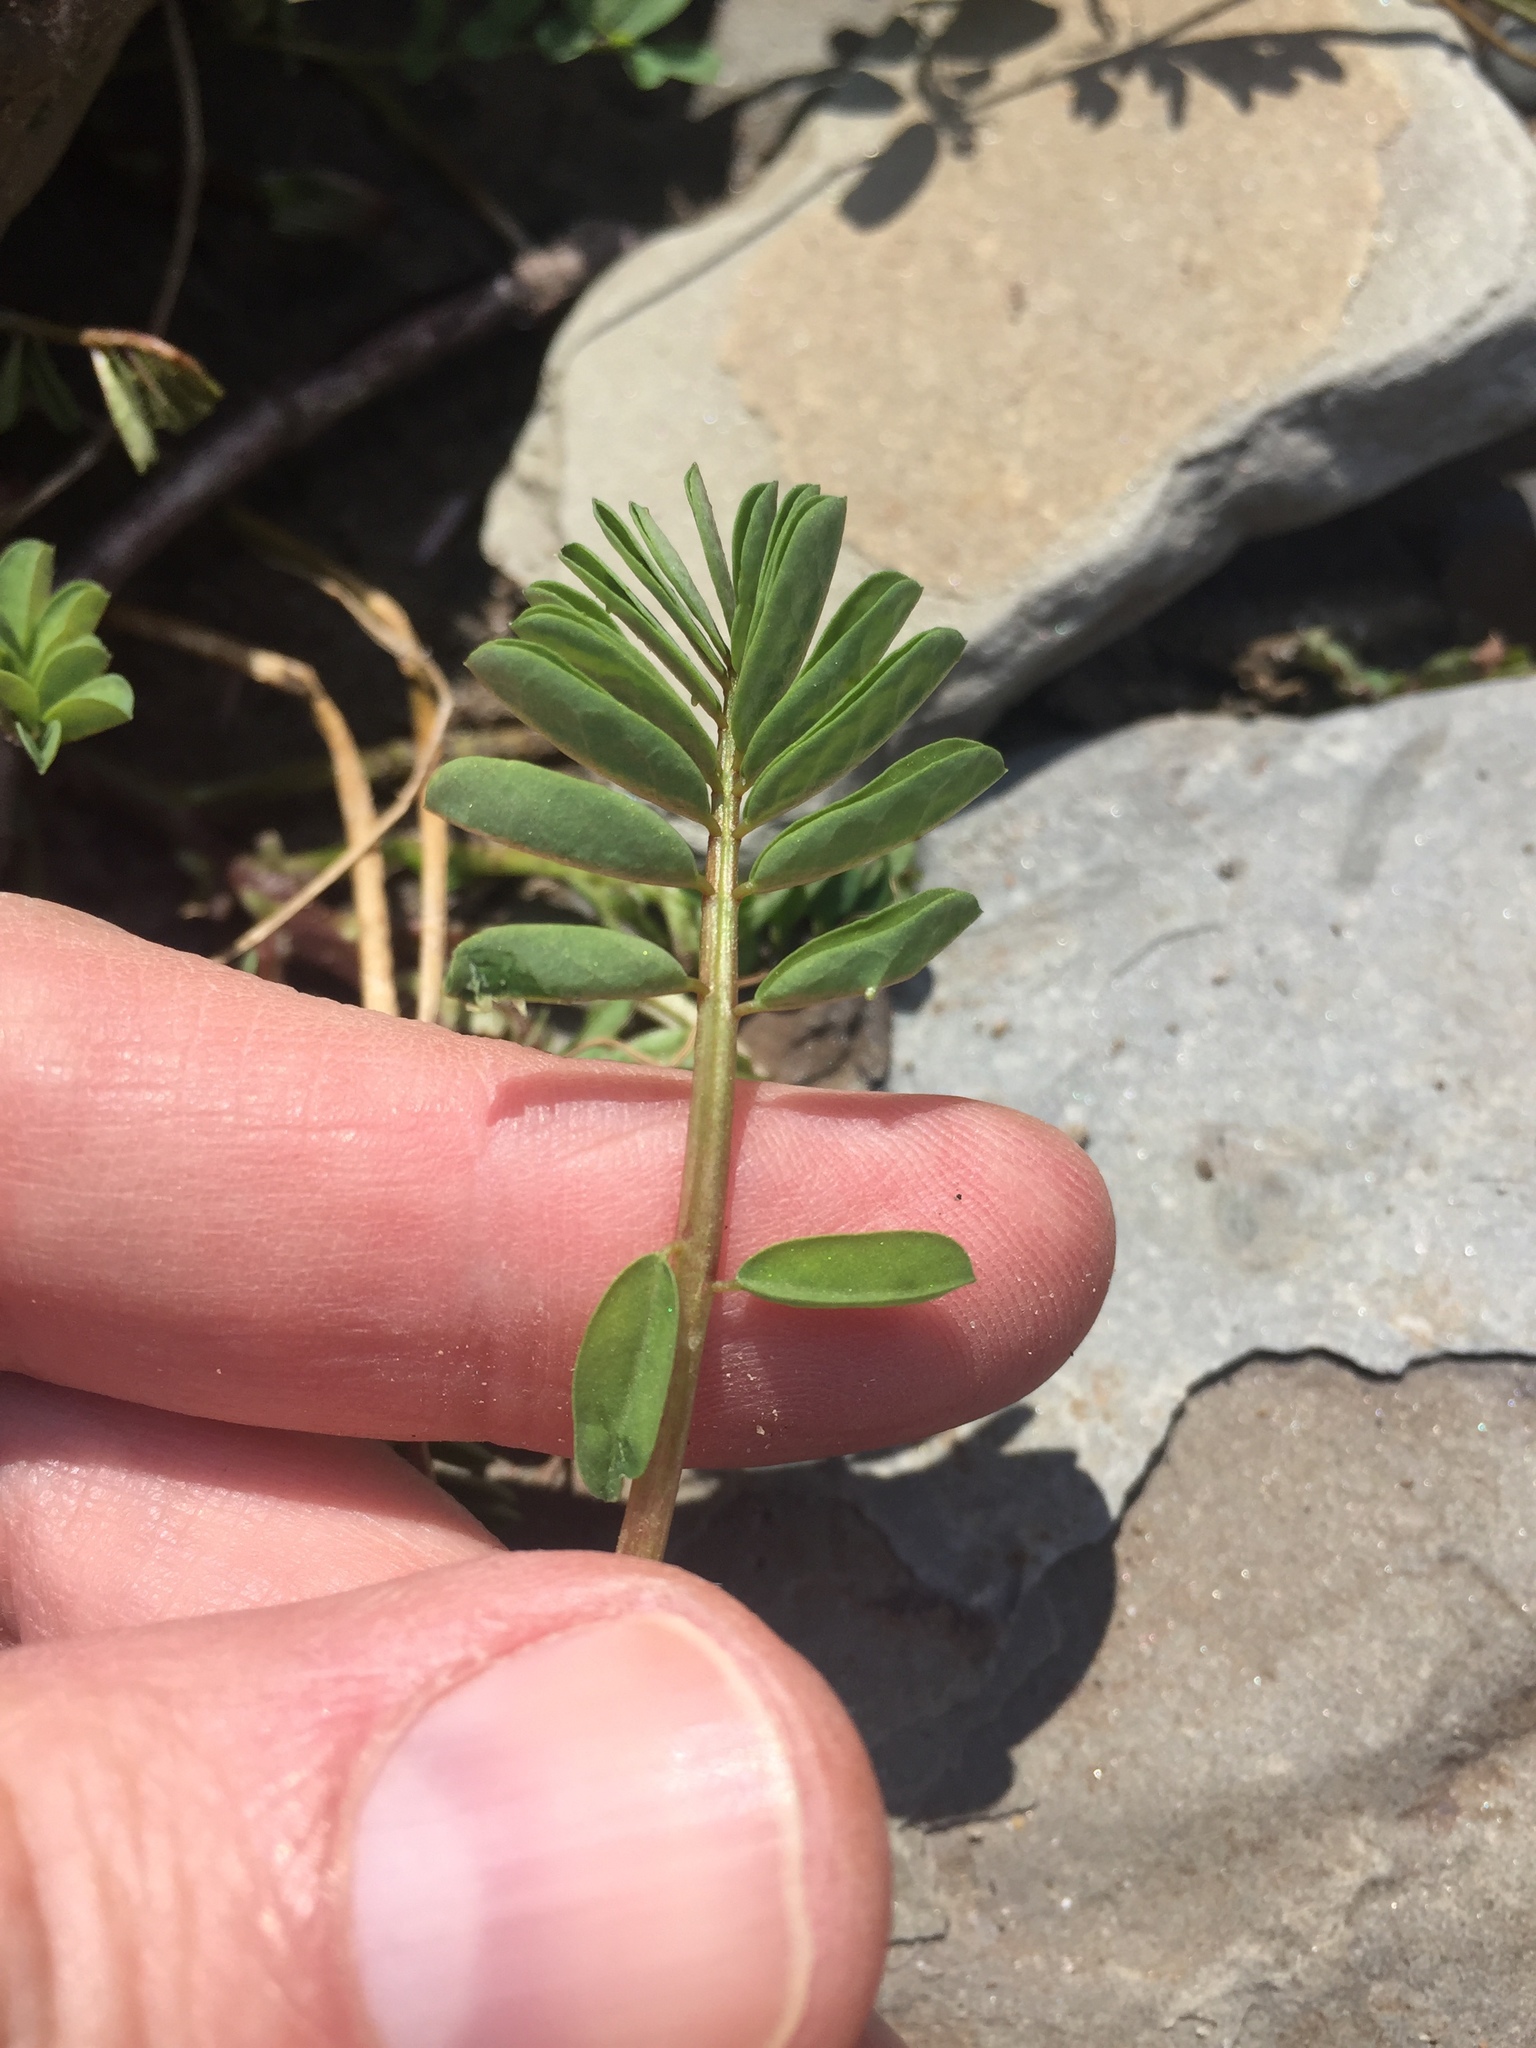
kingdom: Plantae
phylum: Tracheophyta
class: Magnoliopsida
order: Fabales
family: Fabaceae
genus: Coronilla
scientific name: Coronilla varia
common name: Crownvetch
